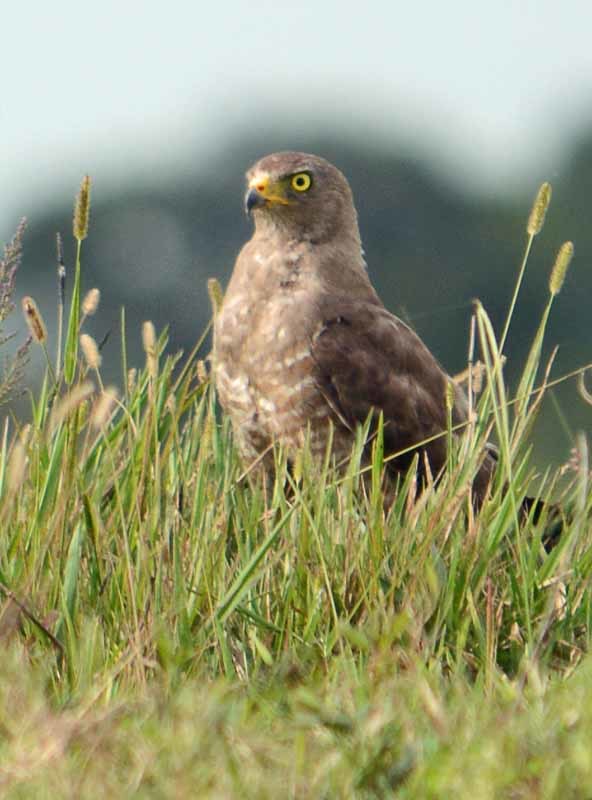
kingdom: Animalia
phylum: Chordata
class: Aves
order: Accipitriformes
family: Accipitridae
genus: Rupornis
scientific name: Rupornis magnirostris
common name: Roadside hawk
